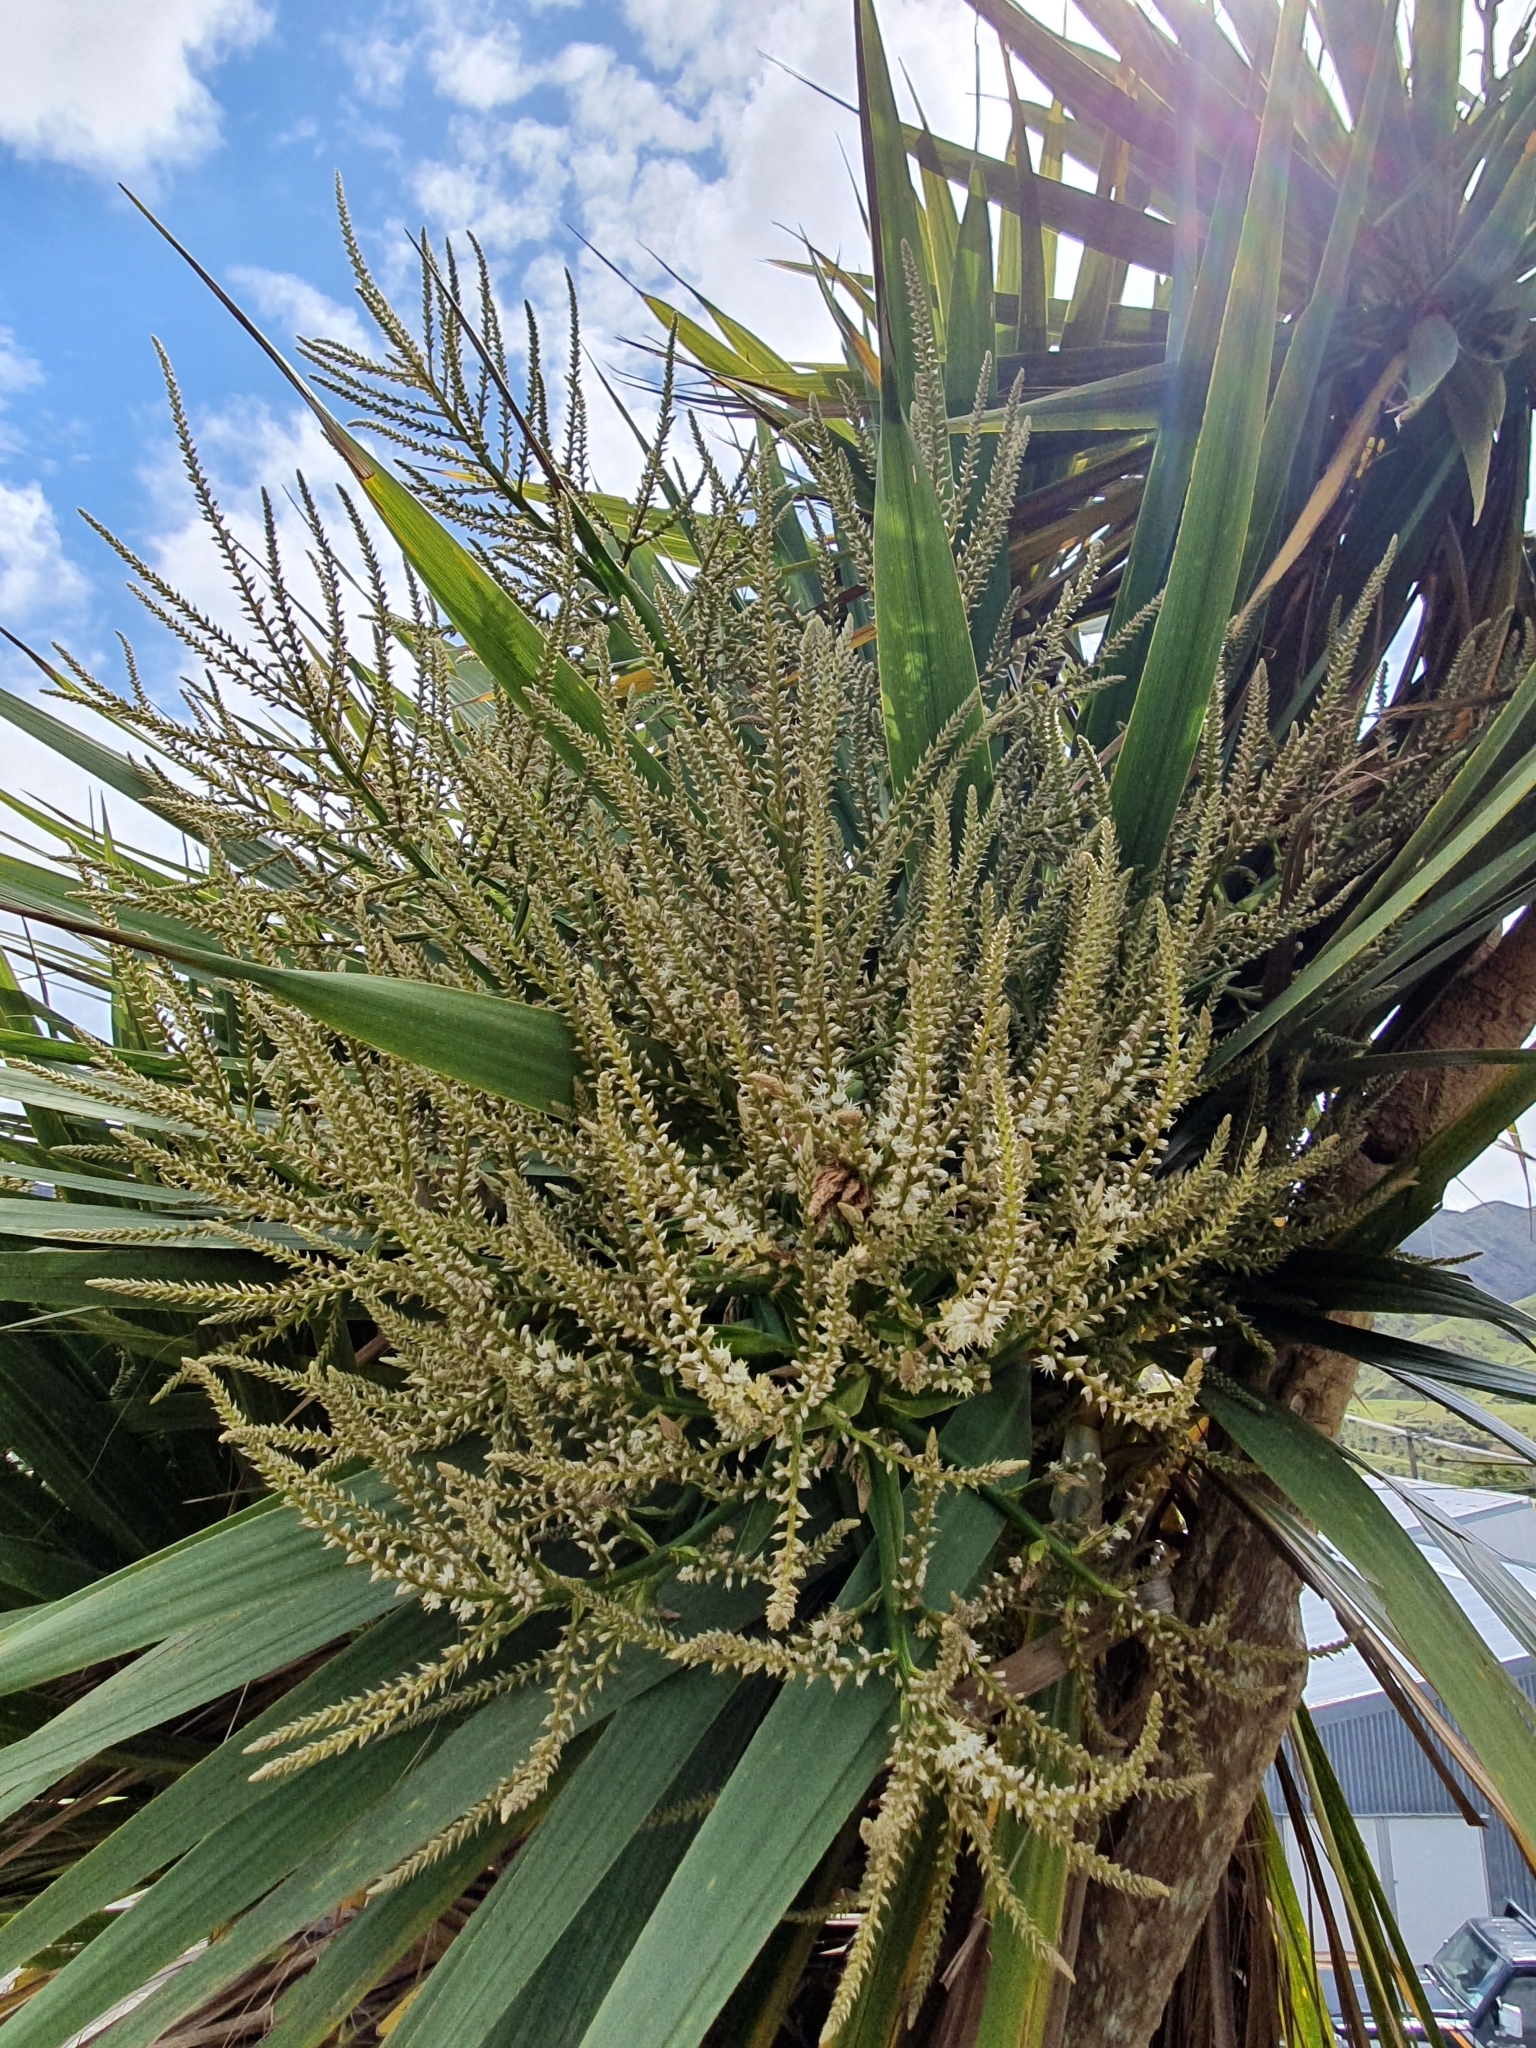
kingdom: Plantae
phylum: Tracheophyta
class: Liliopsida
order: Asparagales
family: Asparagaceae
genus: Cordyline
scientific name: Cordyline australis
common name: Cabbage-palm
